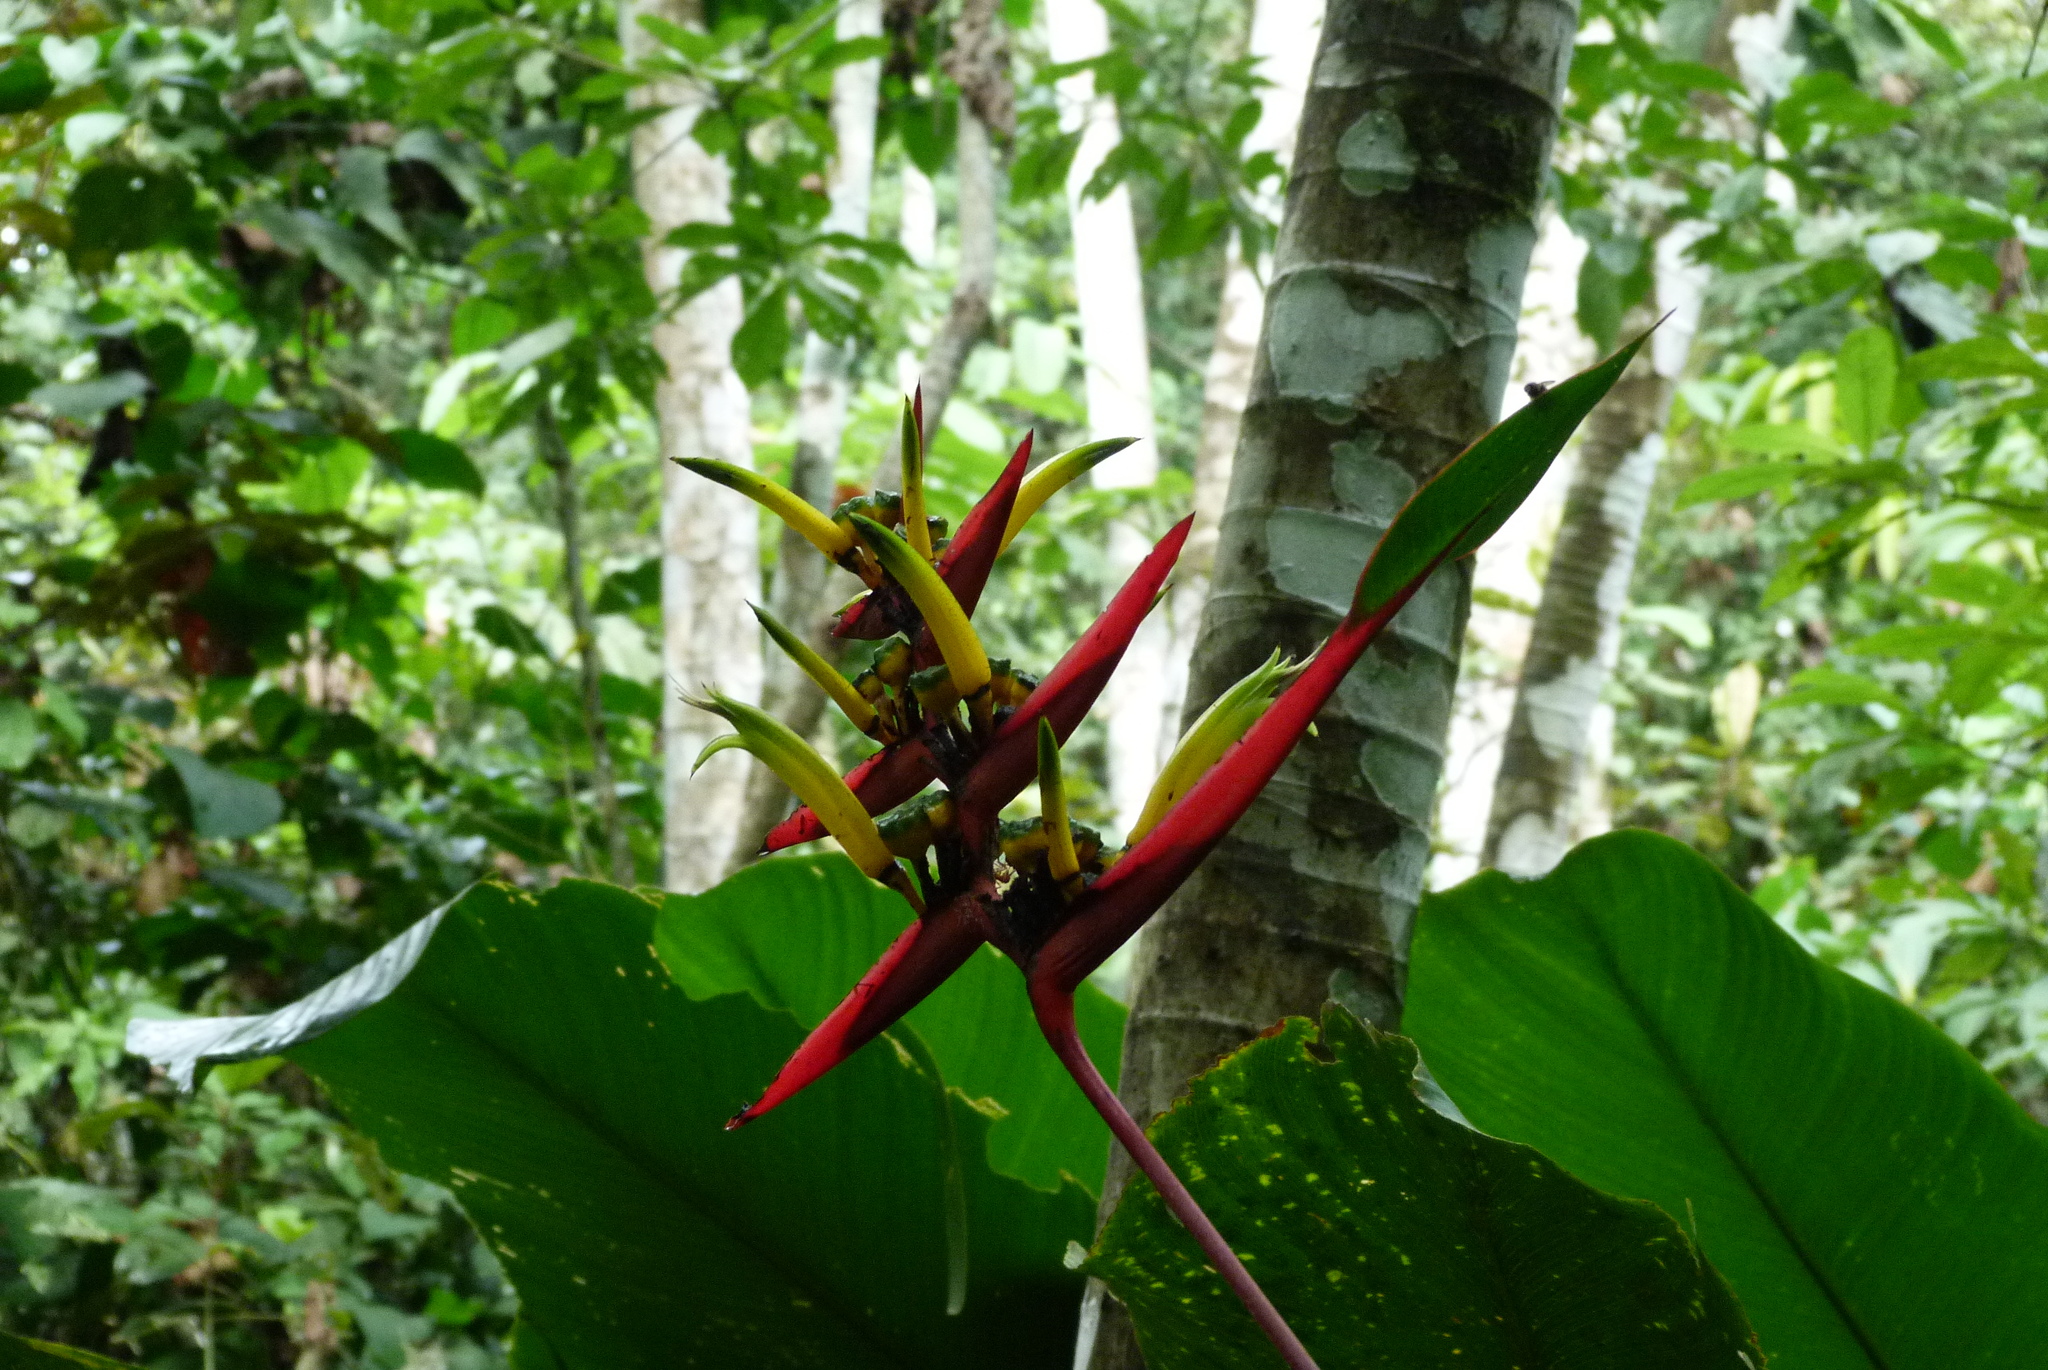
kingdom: Plantae
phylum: Tracheophyta
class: Liliopsida
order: Zingiberales
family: Heliconiaceae
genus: Heliconia
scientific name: Heliconia vaginalis
